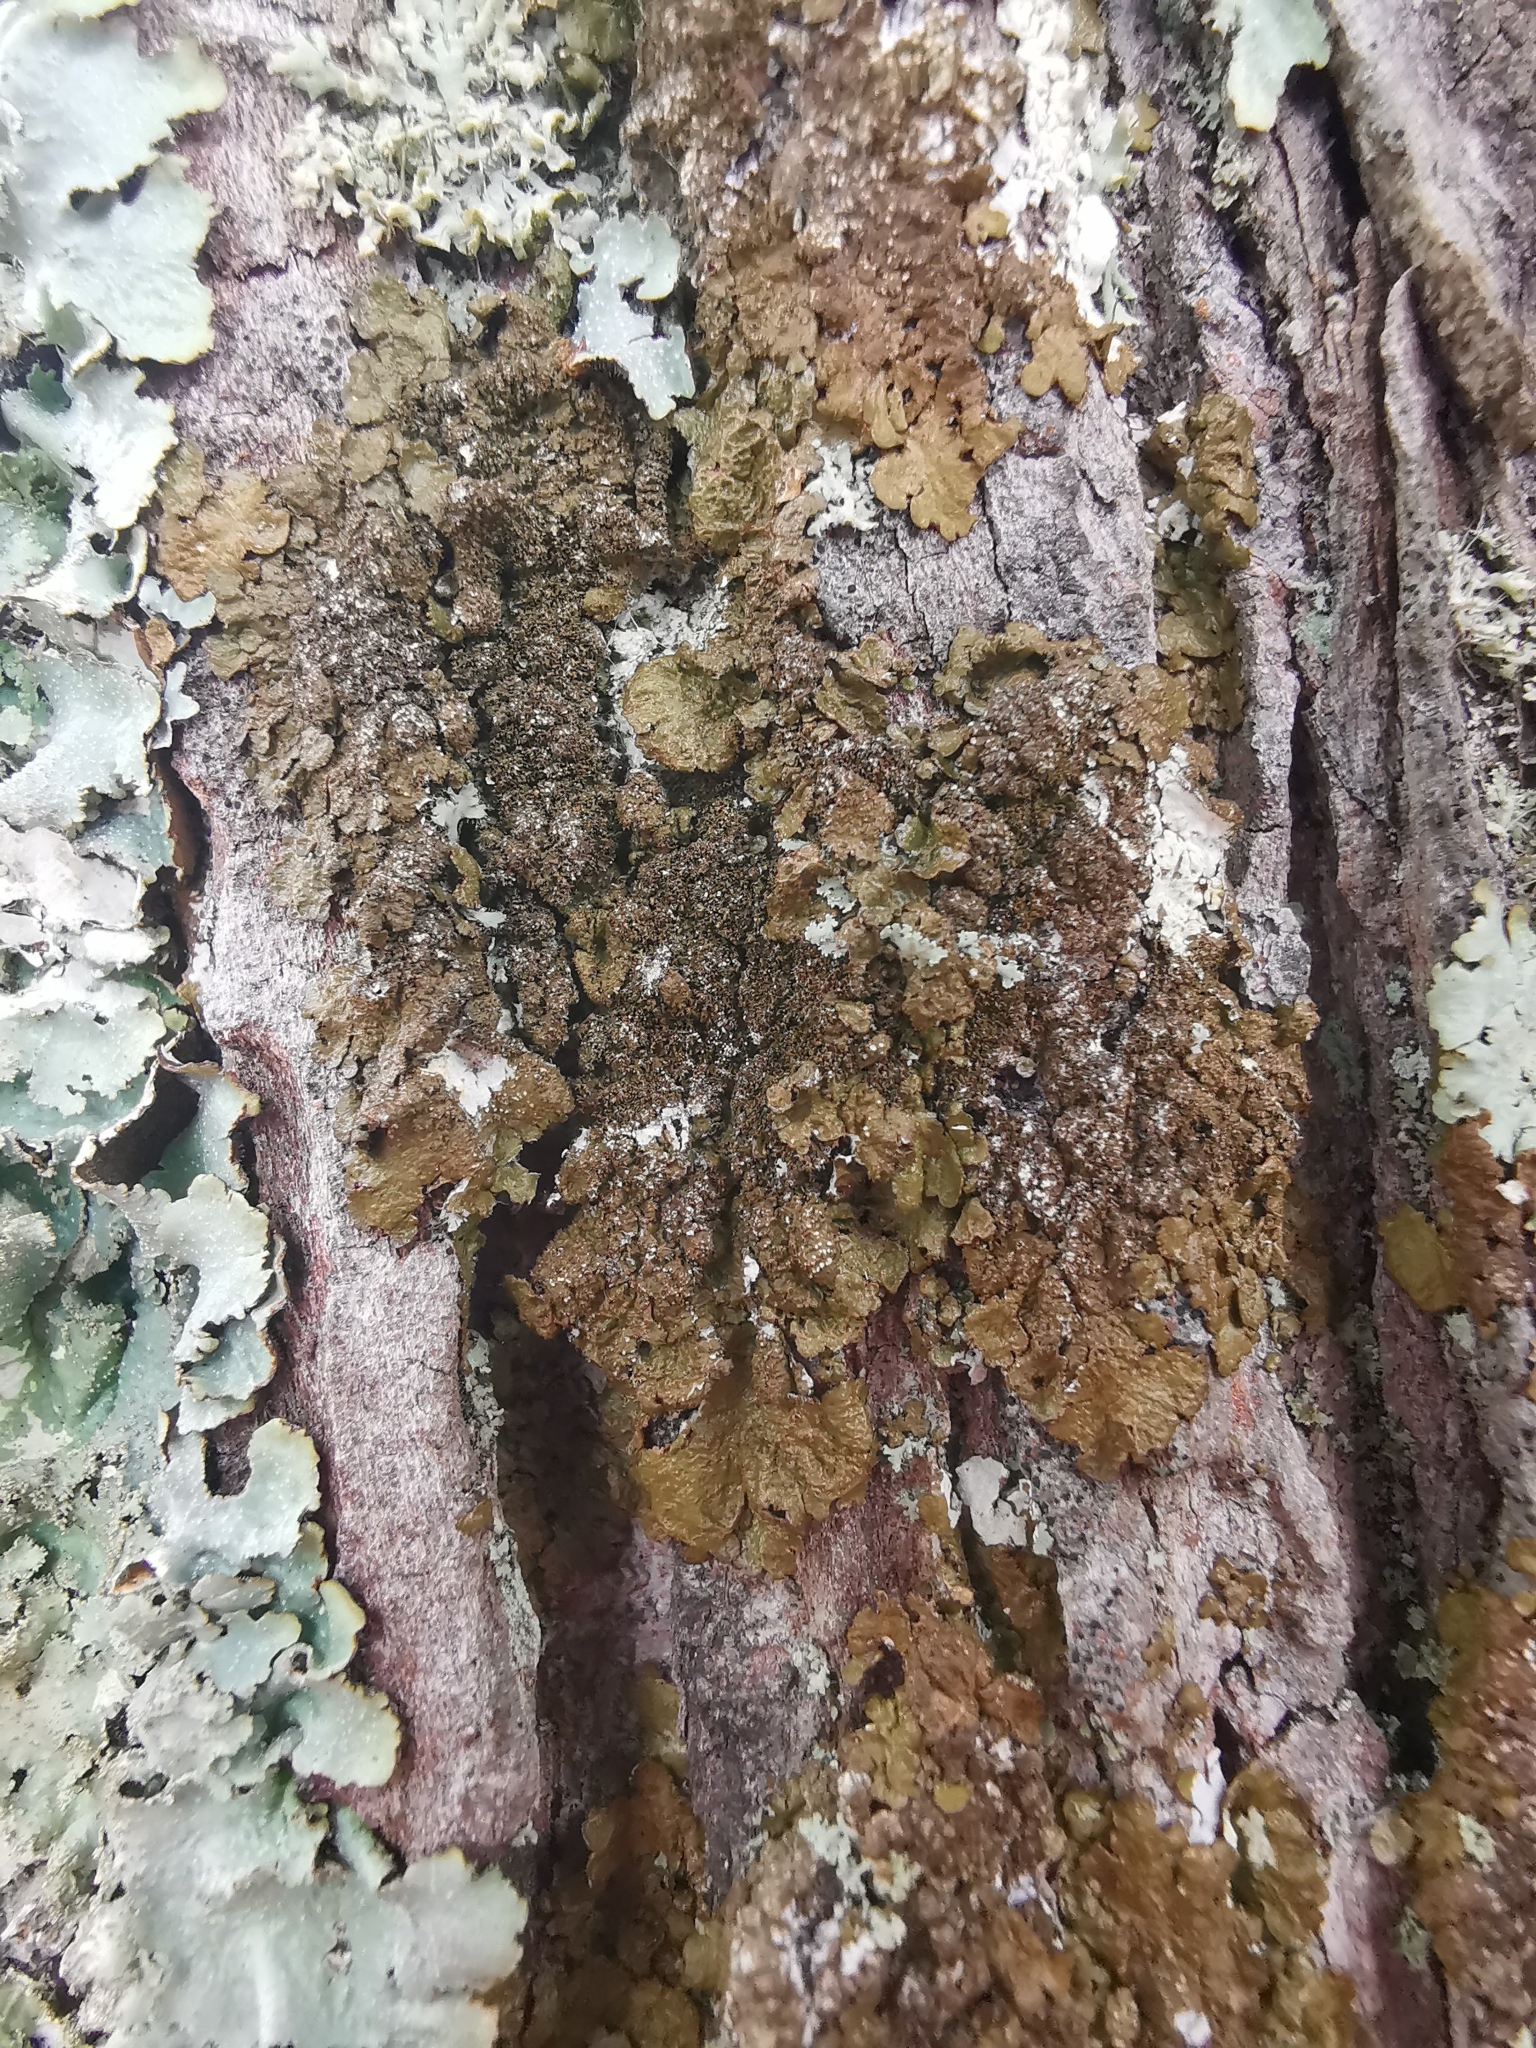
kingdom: Fungi
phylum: Ascomycota
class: Lecanoromycetes
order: Lecanorales
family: Parmeliaceae
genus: Melanelixia
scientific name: Melanelixia subaurifera
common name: Abraded camouflage lichen
